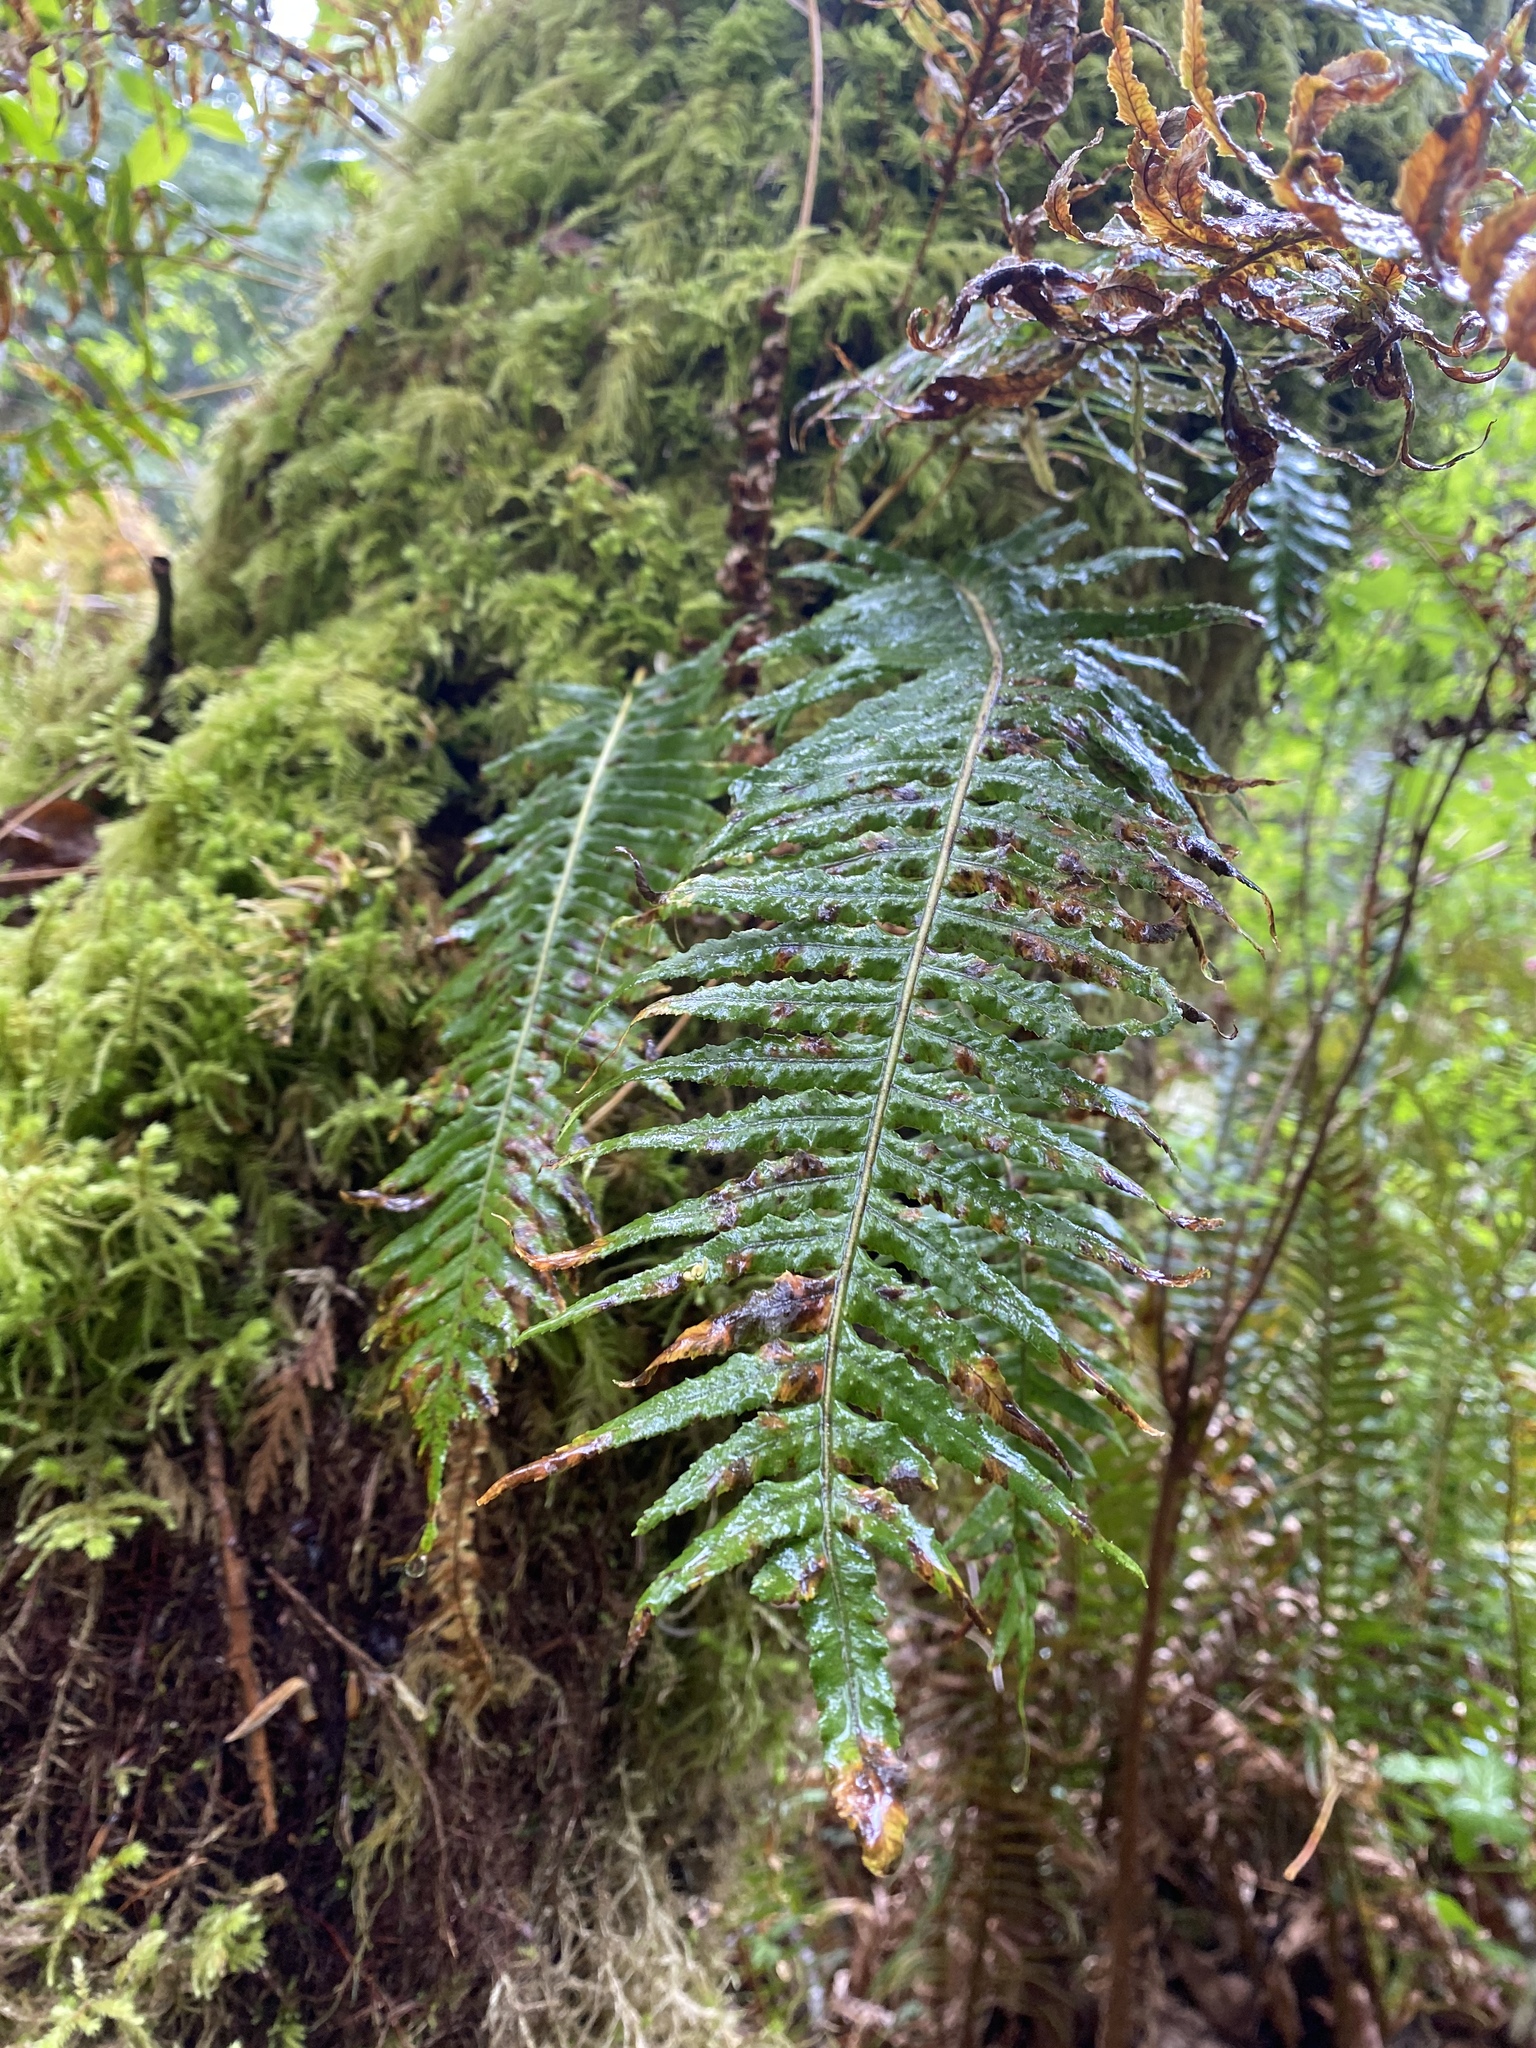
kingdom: Plantae
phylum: Tracheophyta
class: Polypodiopsida
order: Polypodiales
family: Polypodiaceae
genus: Polypodium
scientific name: Polypodium glycyrrhiza
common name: Licorice fern
